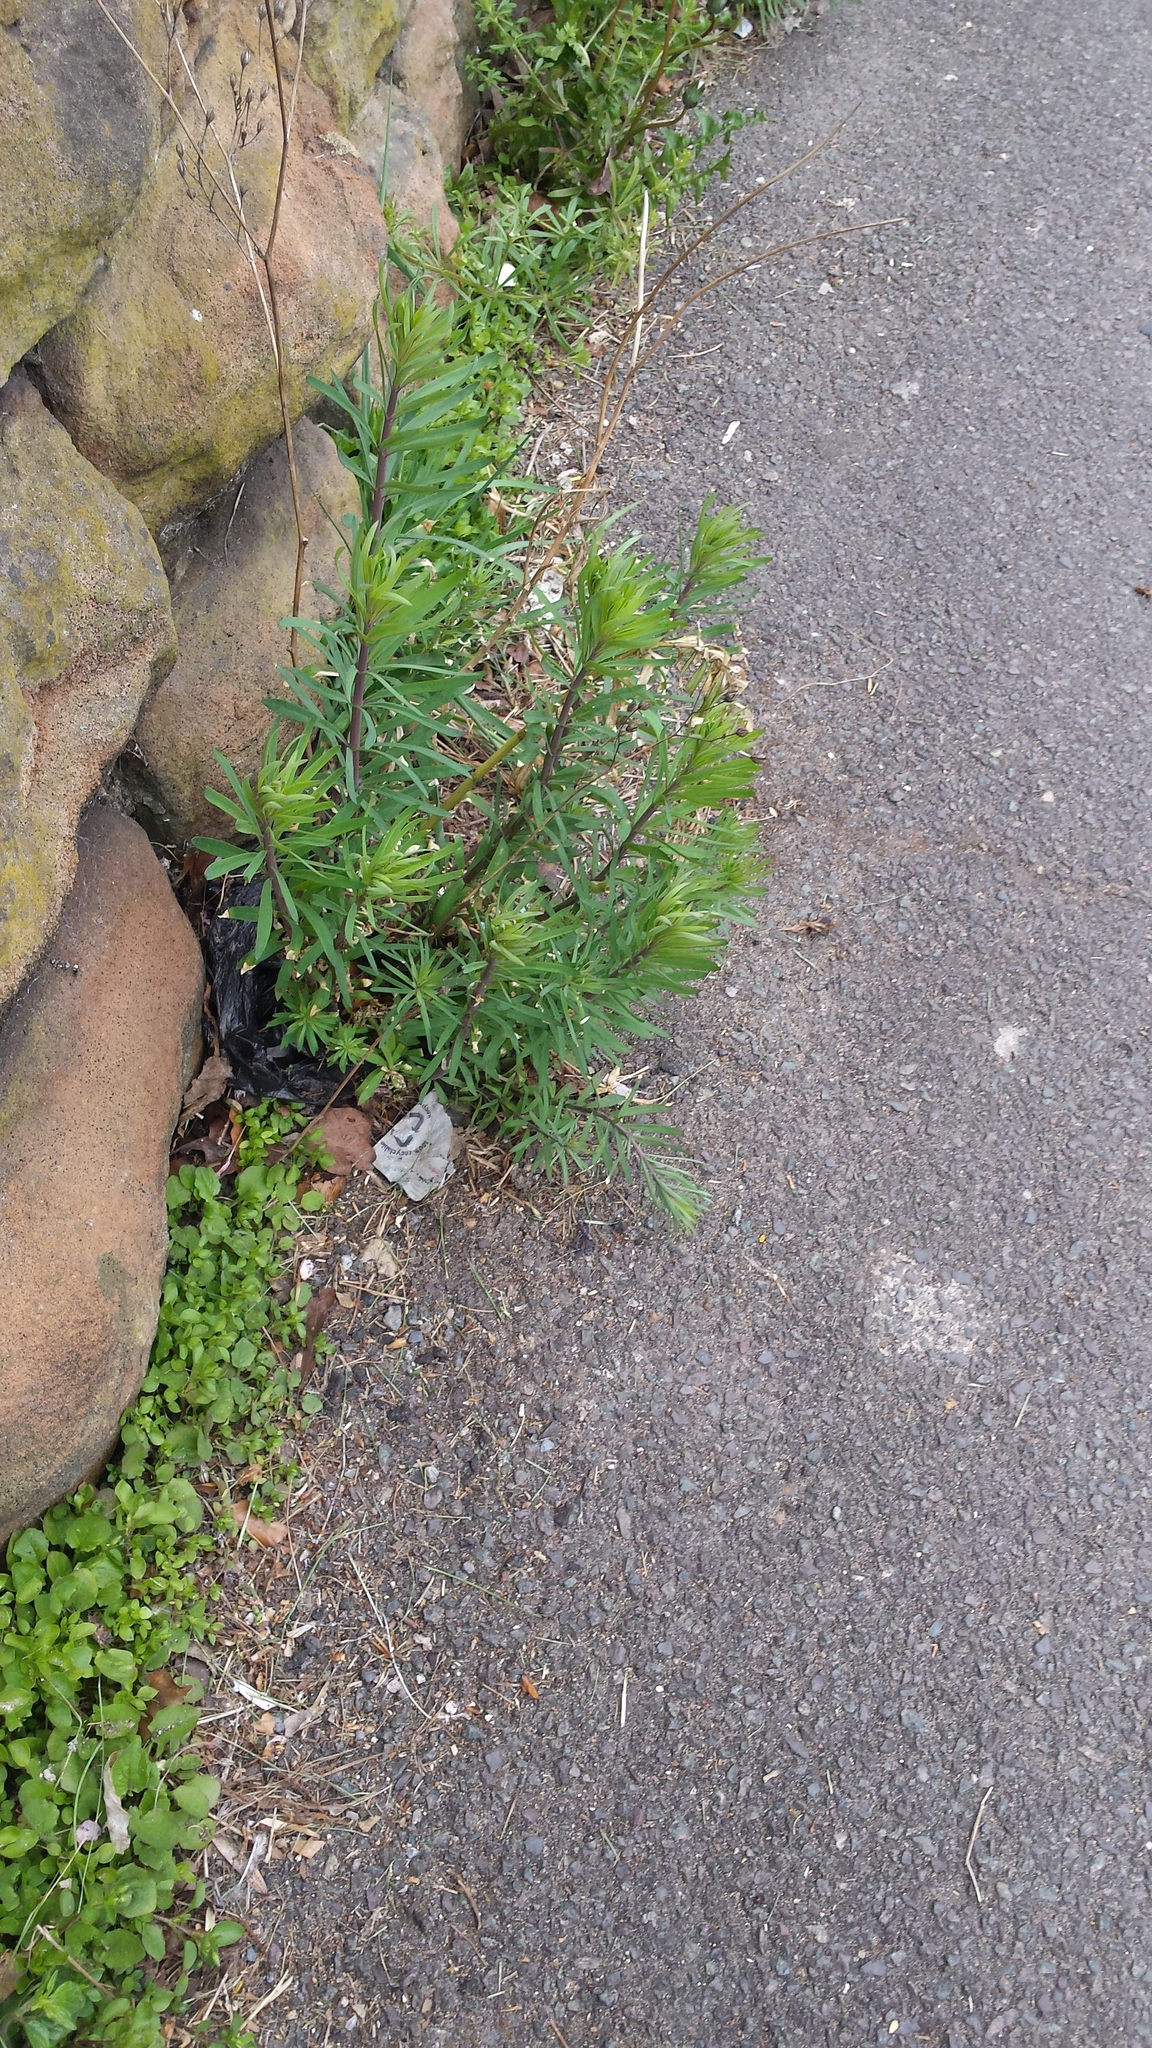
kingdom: Plantae
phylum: Tracheophyta
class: Magnoliopsida
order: Lamiales
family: Plantaginaceae
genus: Linaria
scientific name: Linaria purpurea
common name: Purple toadflax
